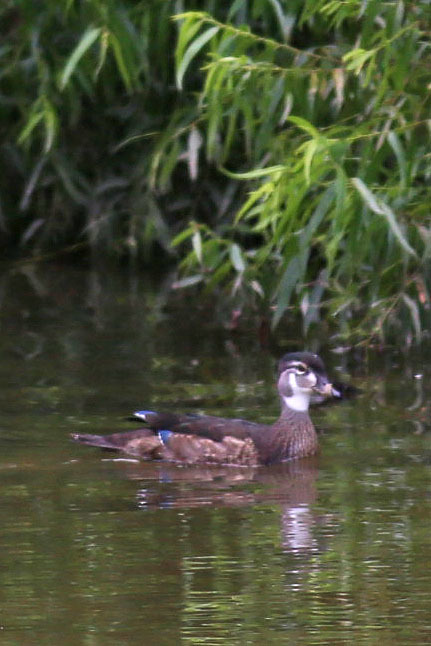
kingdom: Animalia
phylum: Chordata
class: Aves
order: Anseriformes
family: Anatidae
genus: Aix
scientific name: Aix sponsa
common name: Wood duck
